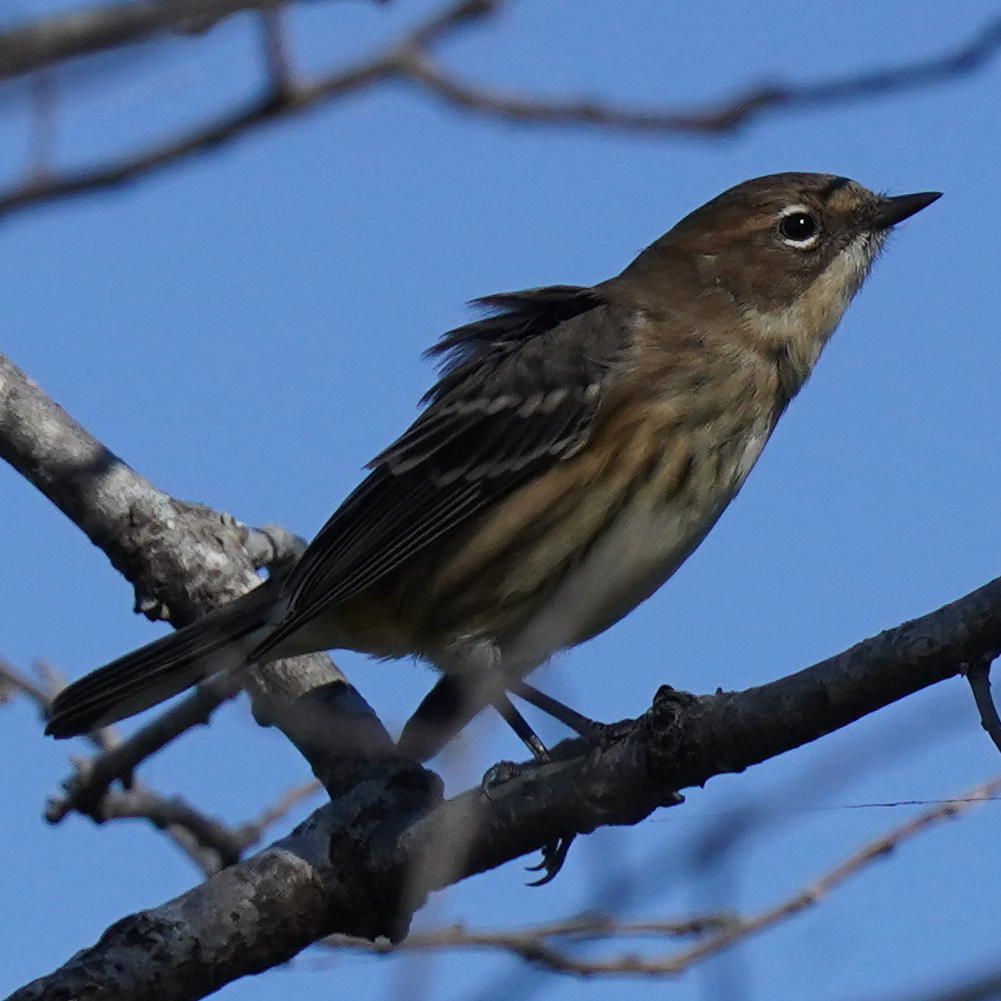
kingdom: Animalia
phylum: Chordata
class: Aves
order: Passeriformes
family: Parulidae
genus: Setophaga
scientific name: Setophaga coronata
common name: Myrtle warbler
